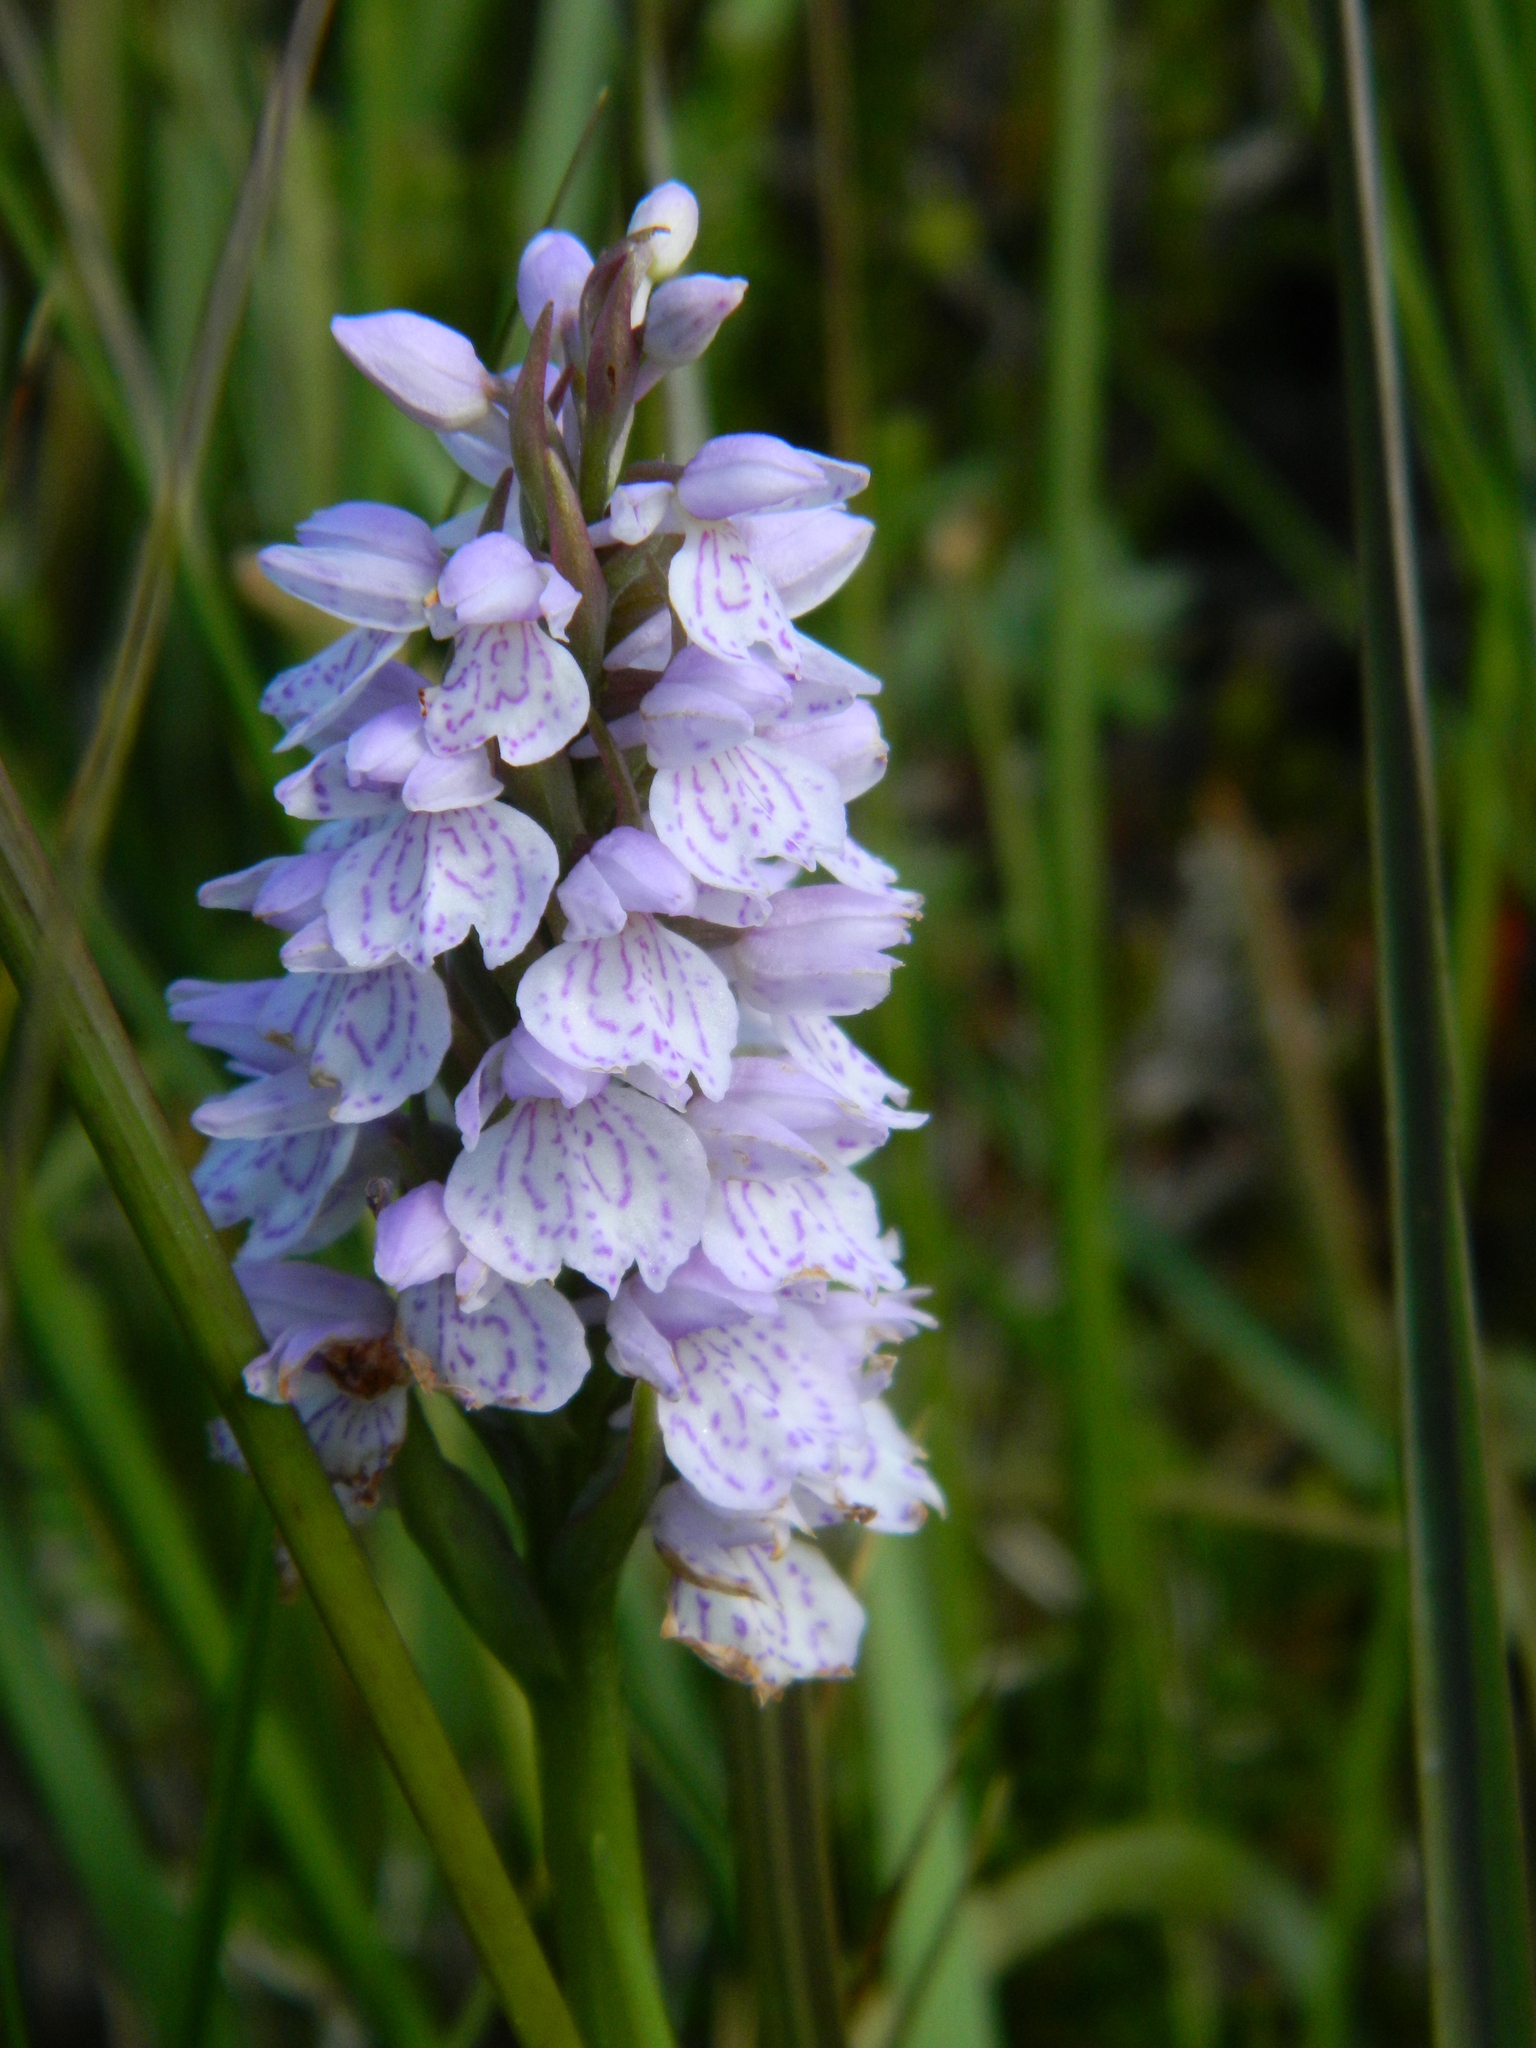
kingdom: Plantae
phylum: Tracheophyta
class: Liliopsida
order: Asparagales
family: Orchidaceae
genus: Dactylorhiza
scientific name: Dactylorhiza maculata
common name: Heath spotted-orchid
